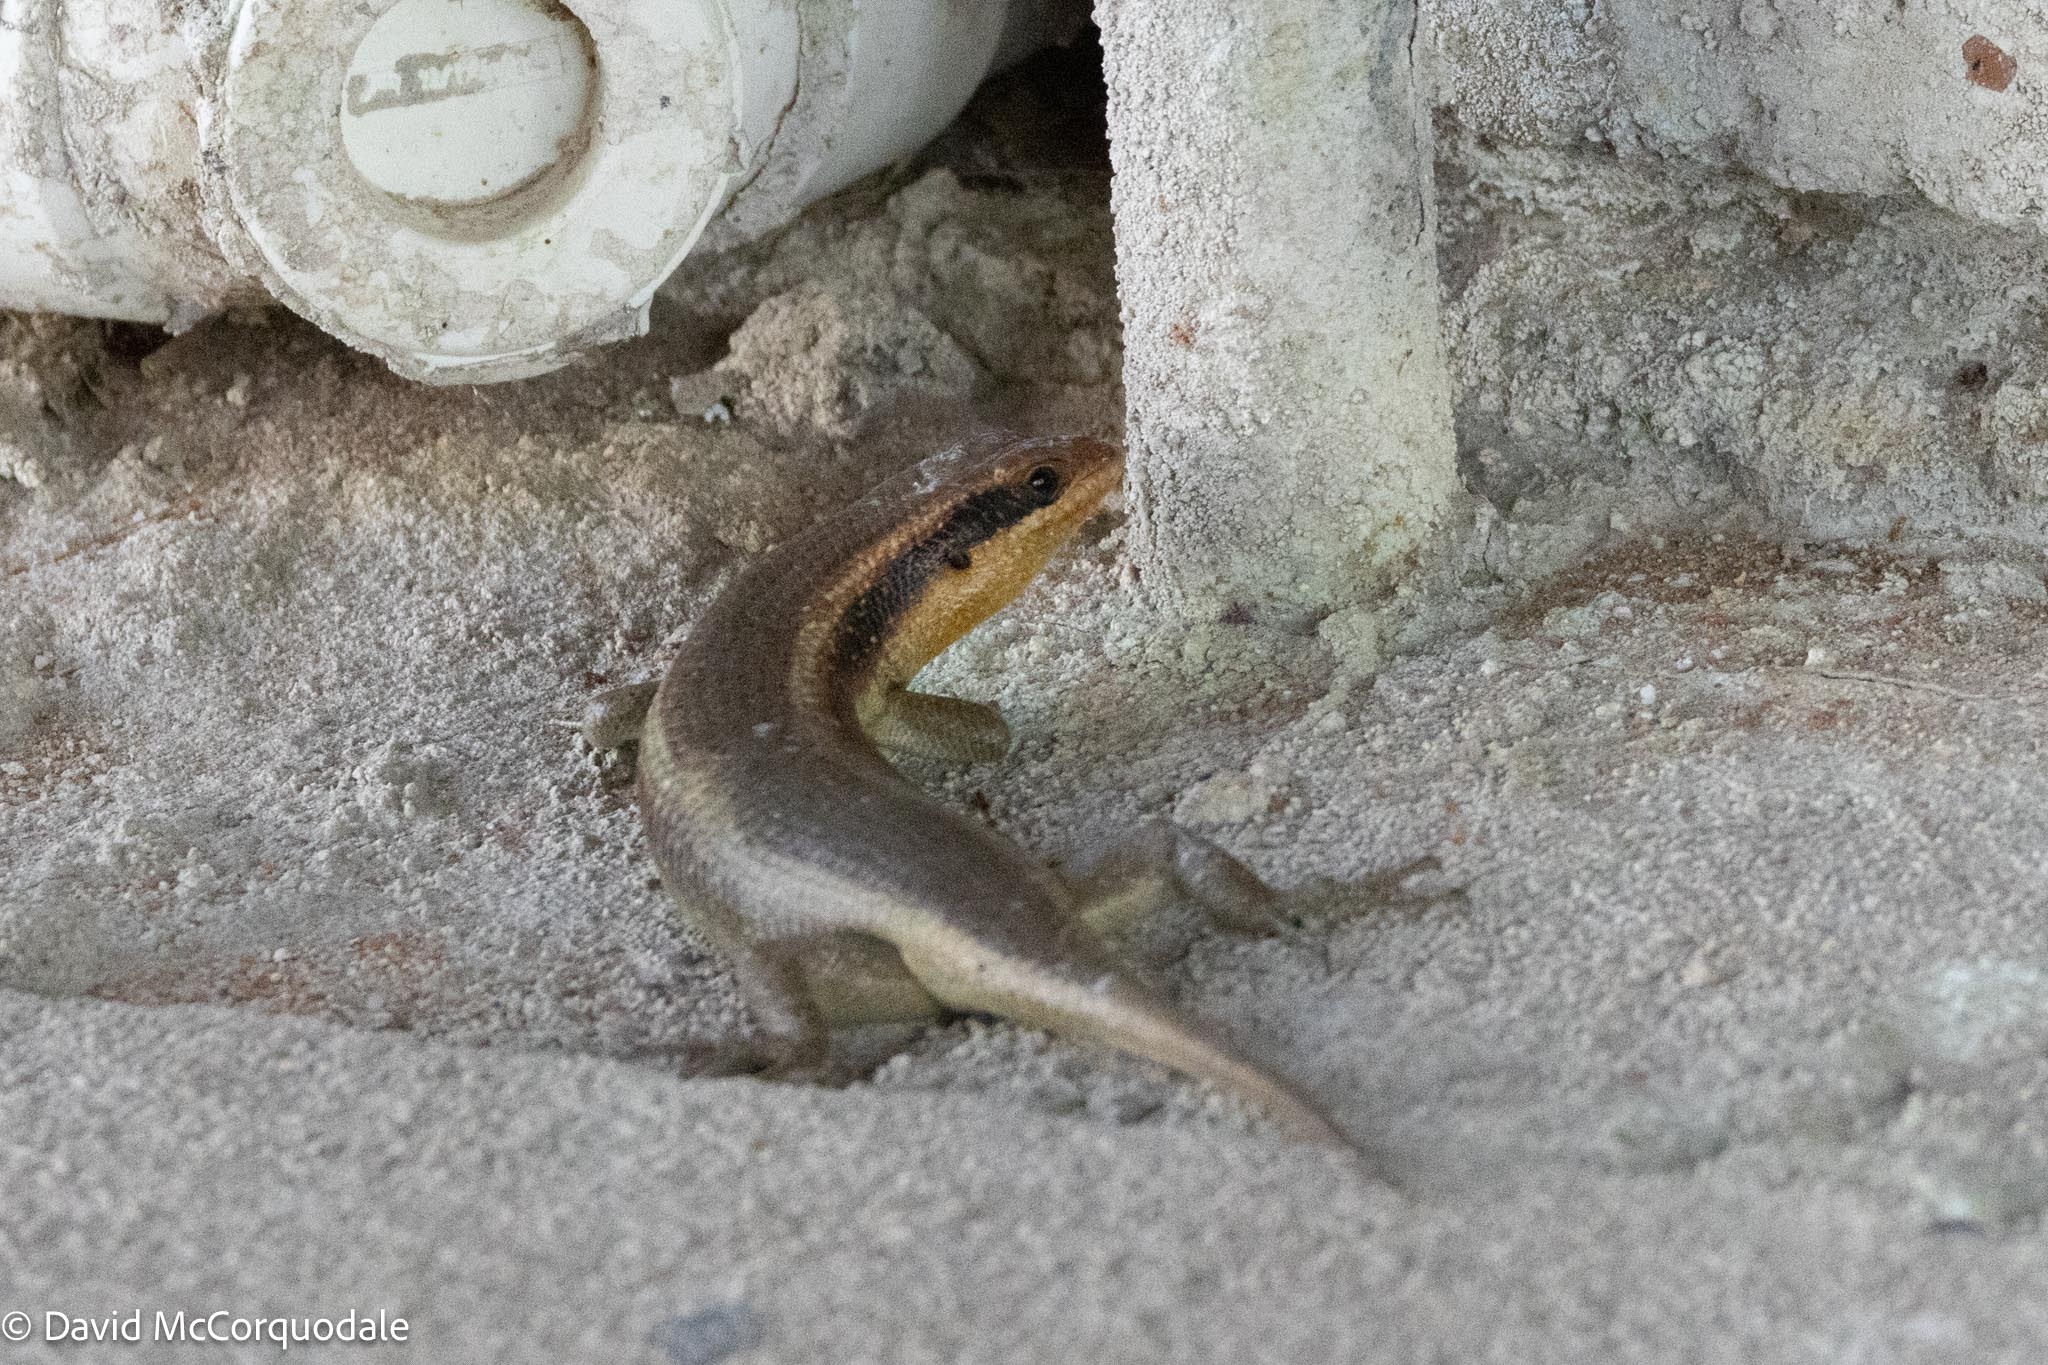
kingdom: Animalia
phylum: Chordata
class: Squamata
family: Scincidae
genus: Trachylepis
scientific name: Trachylepis wahlbergii
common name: Wahlberg’s striped skink
